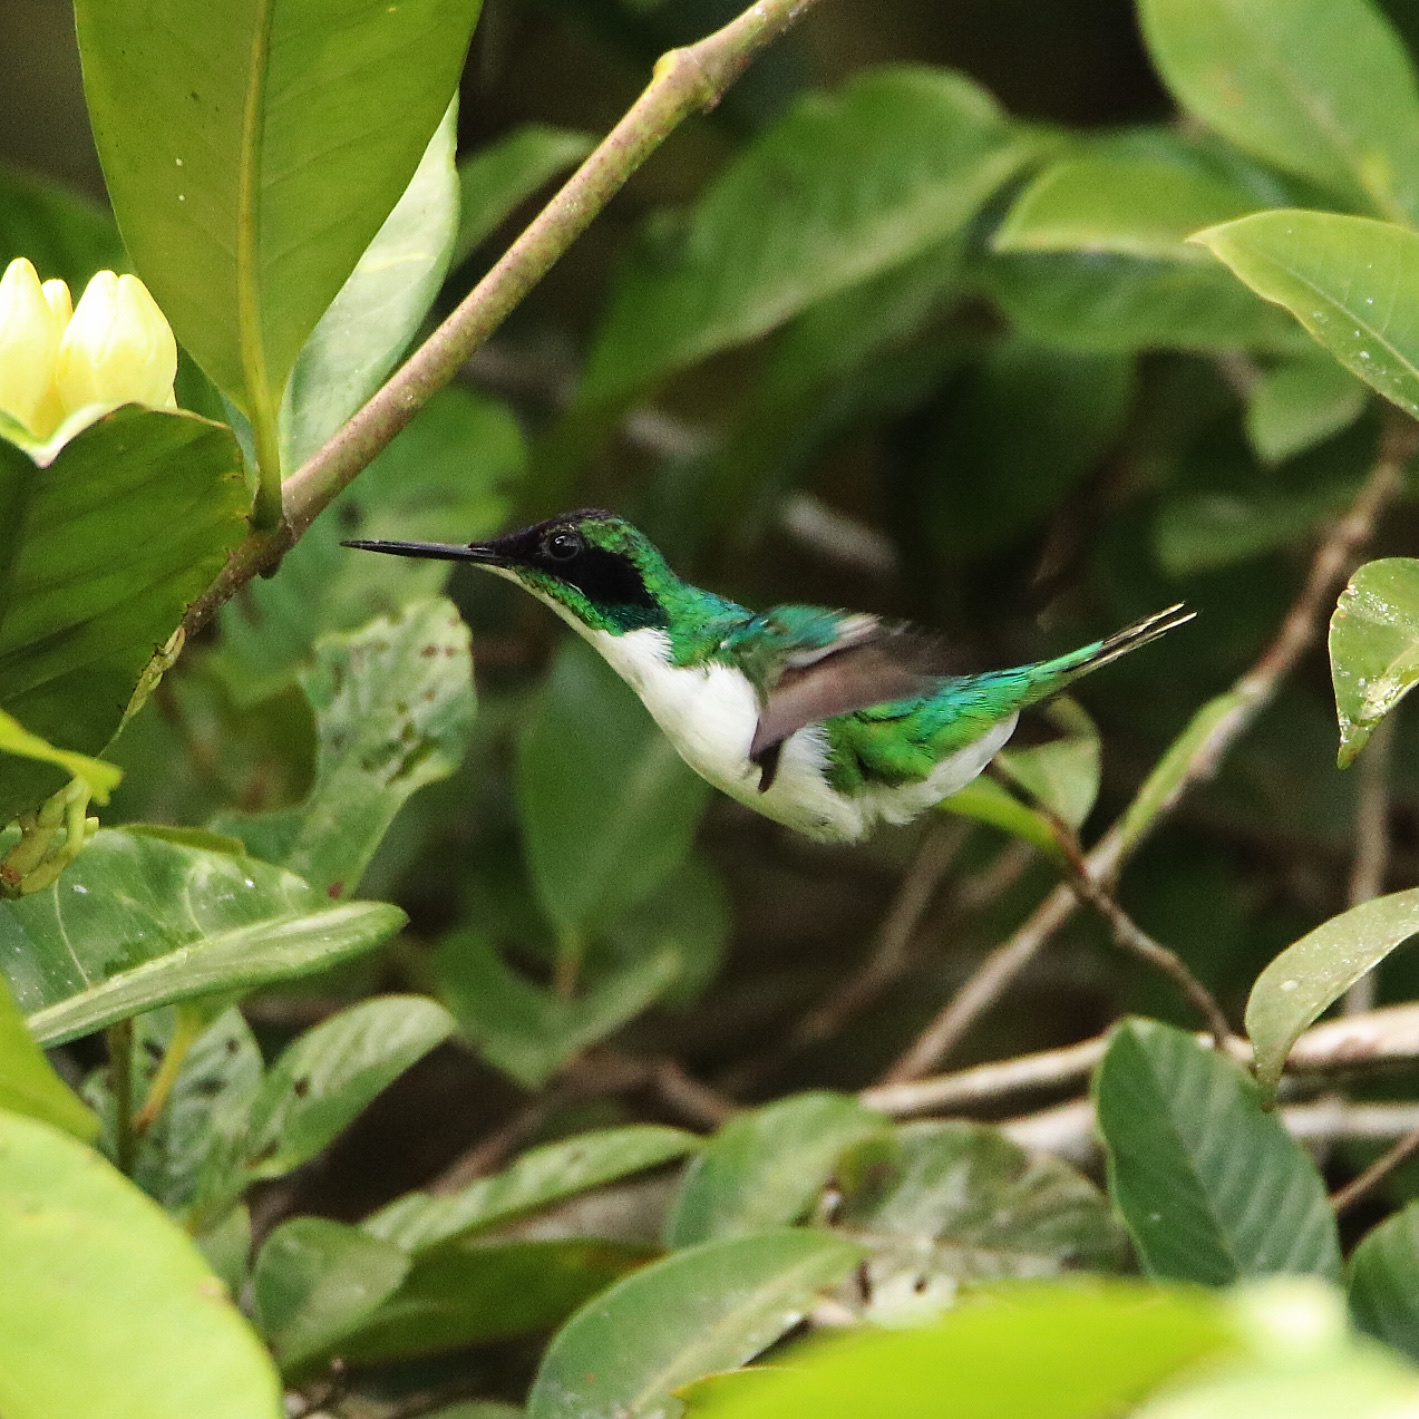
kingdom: Animalia
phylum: Chordata
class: Aves
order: Apodiformes
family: Trochilidae
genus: Heliothryx
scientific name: Heliothryx barroti
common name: Purple-crowned fairy
